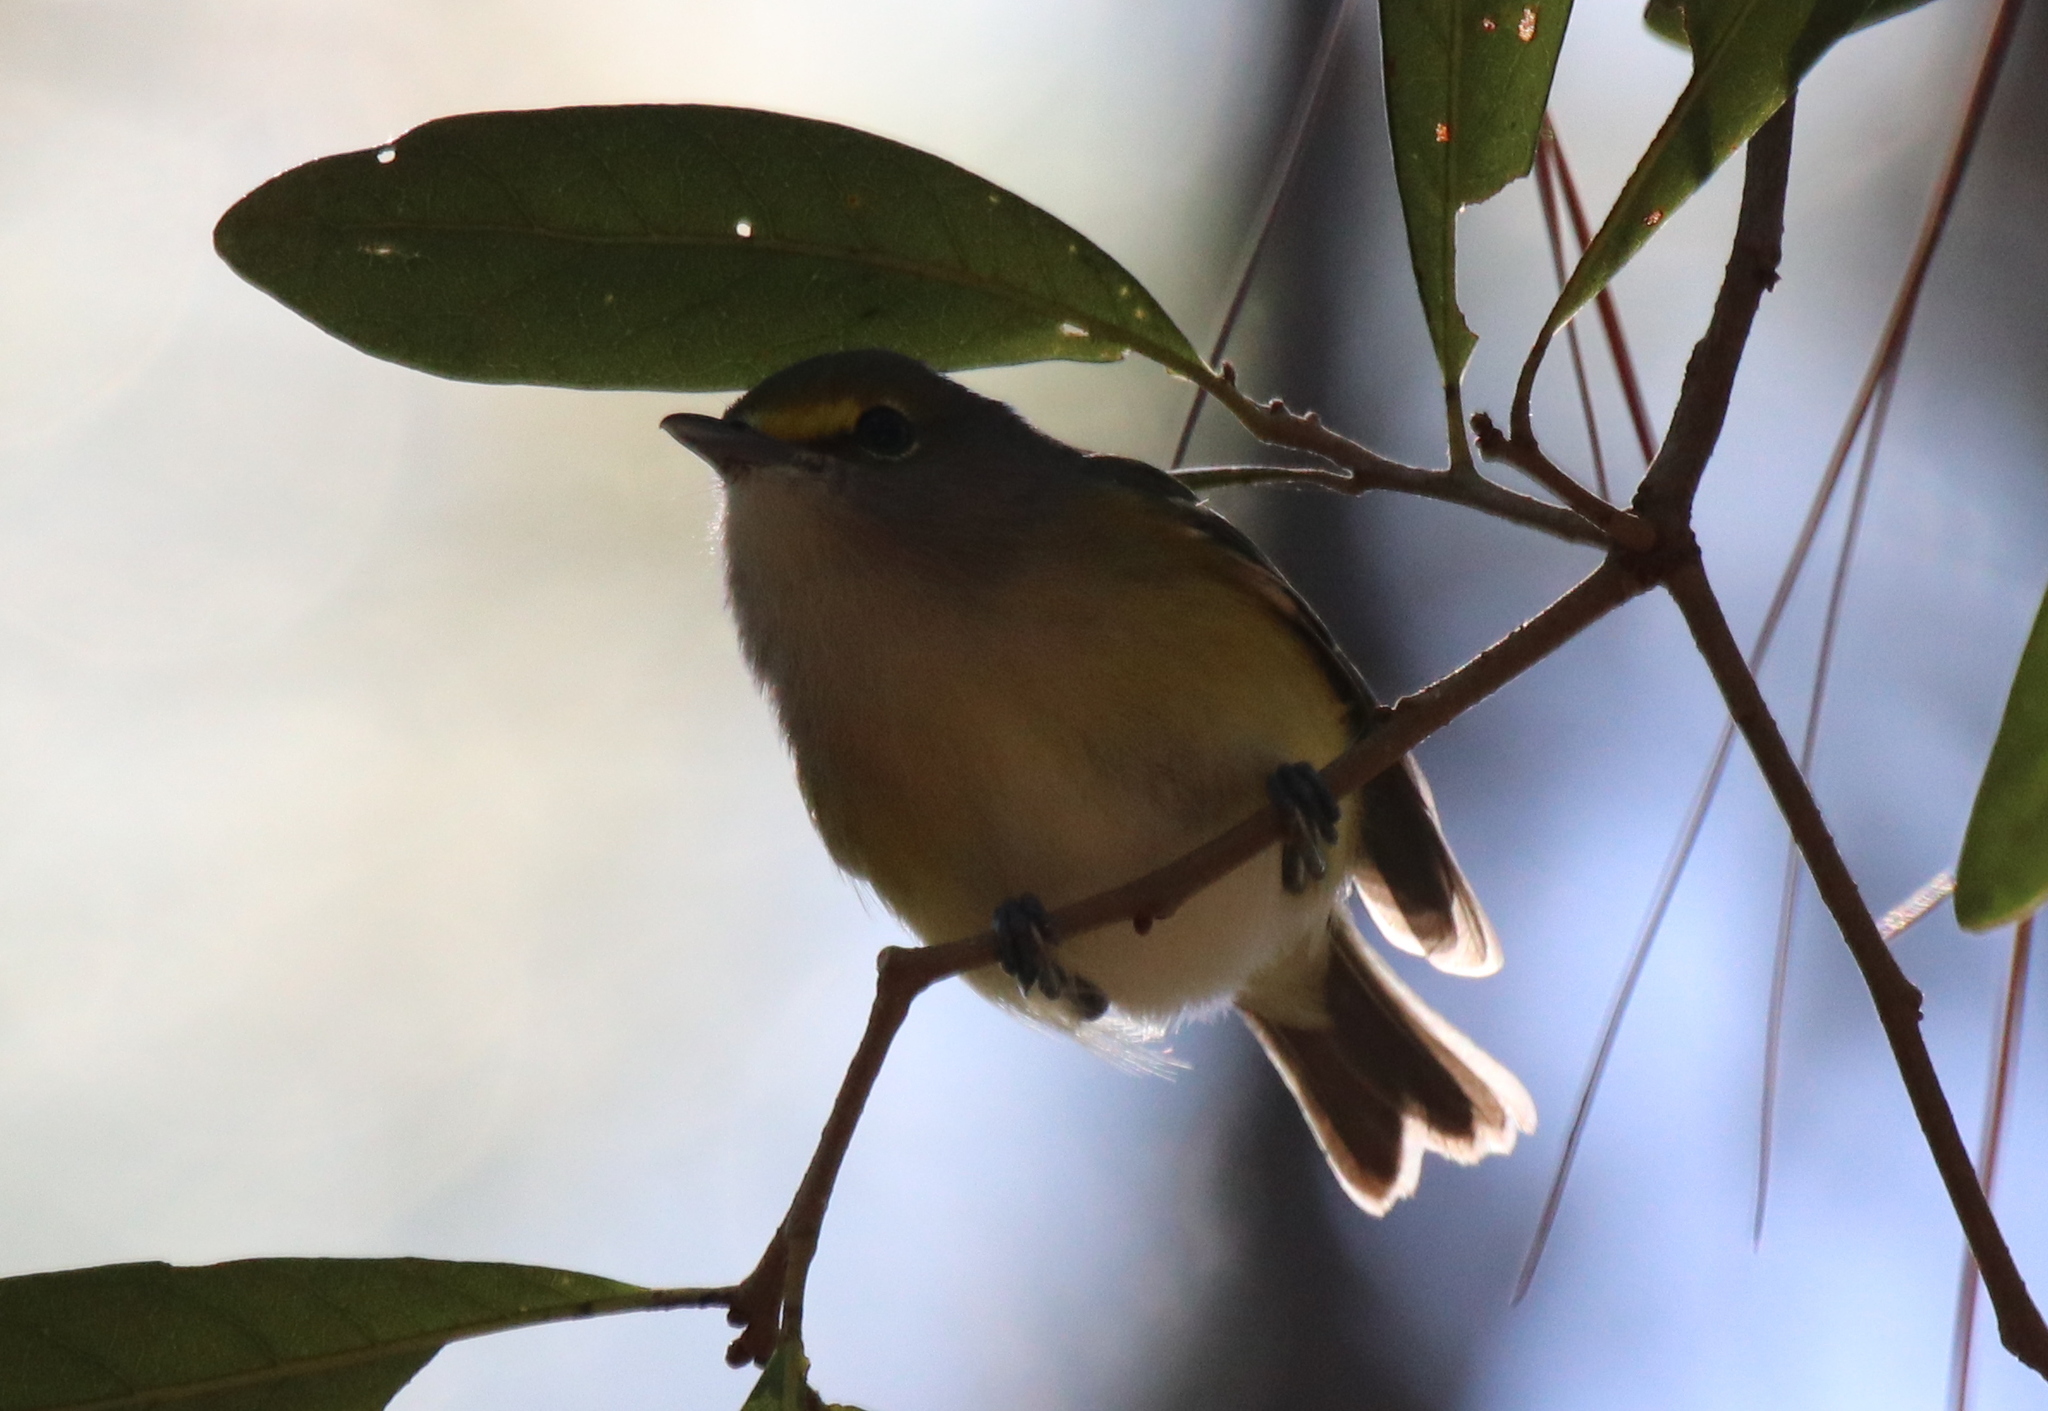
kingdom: Animalia
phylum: Chordata
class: Aves
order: Passeriformes
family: Vireonidae
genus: Vireo
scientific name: Vireo griseus
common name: White-eyed vireo
